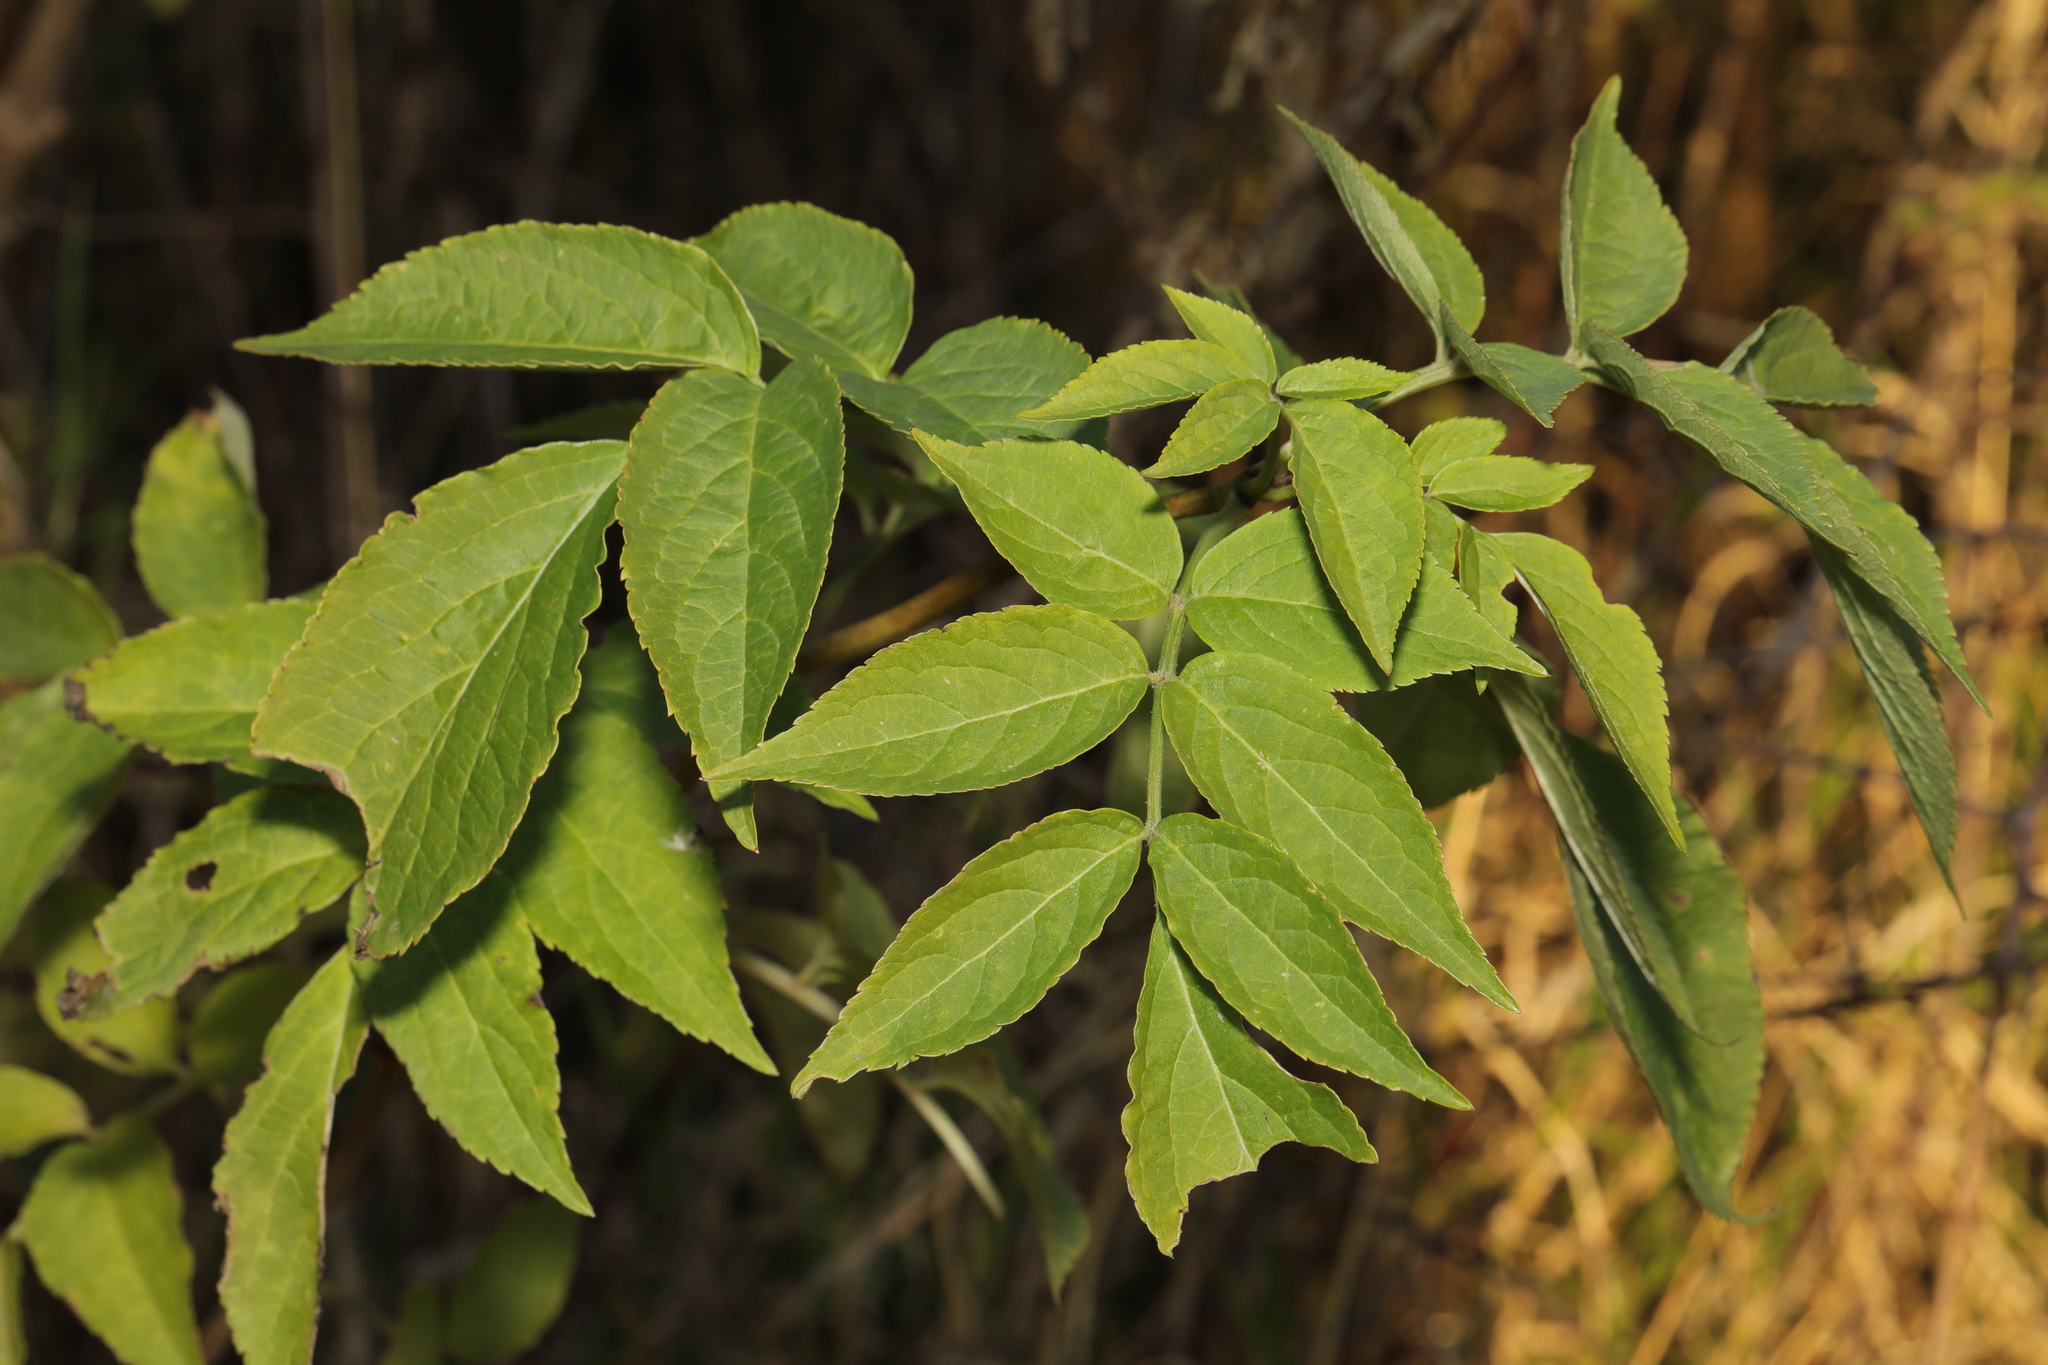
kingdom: Plantae
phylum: Tracheophyta
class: Magnoliopsida
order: Dipsacales
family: Viburnaceae
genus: Sambucus
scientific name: Sambucus nigra
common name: Elder
